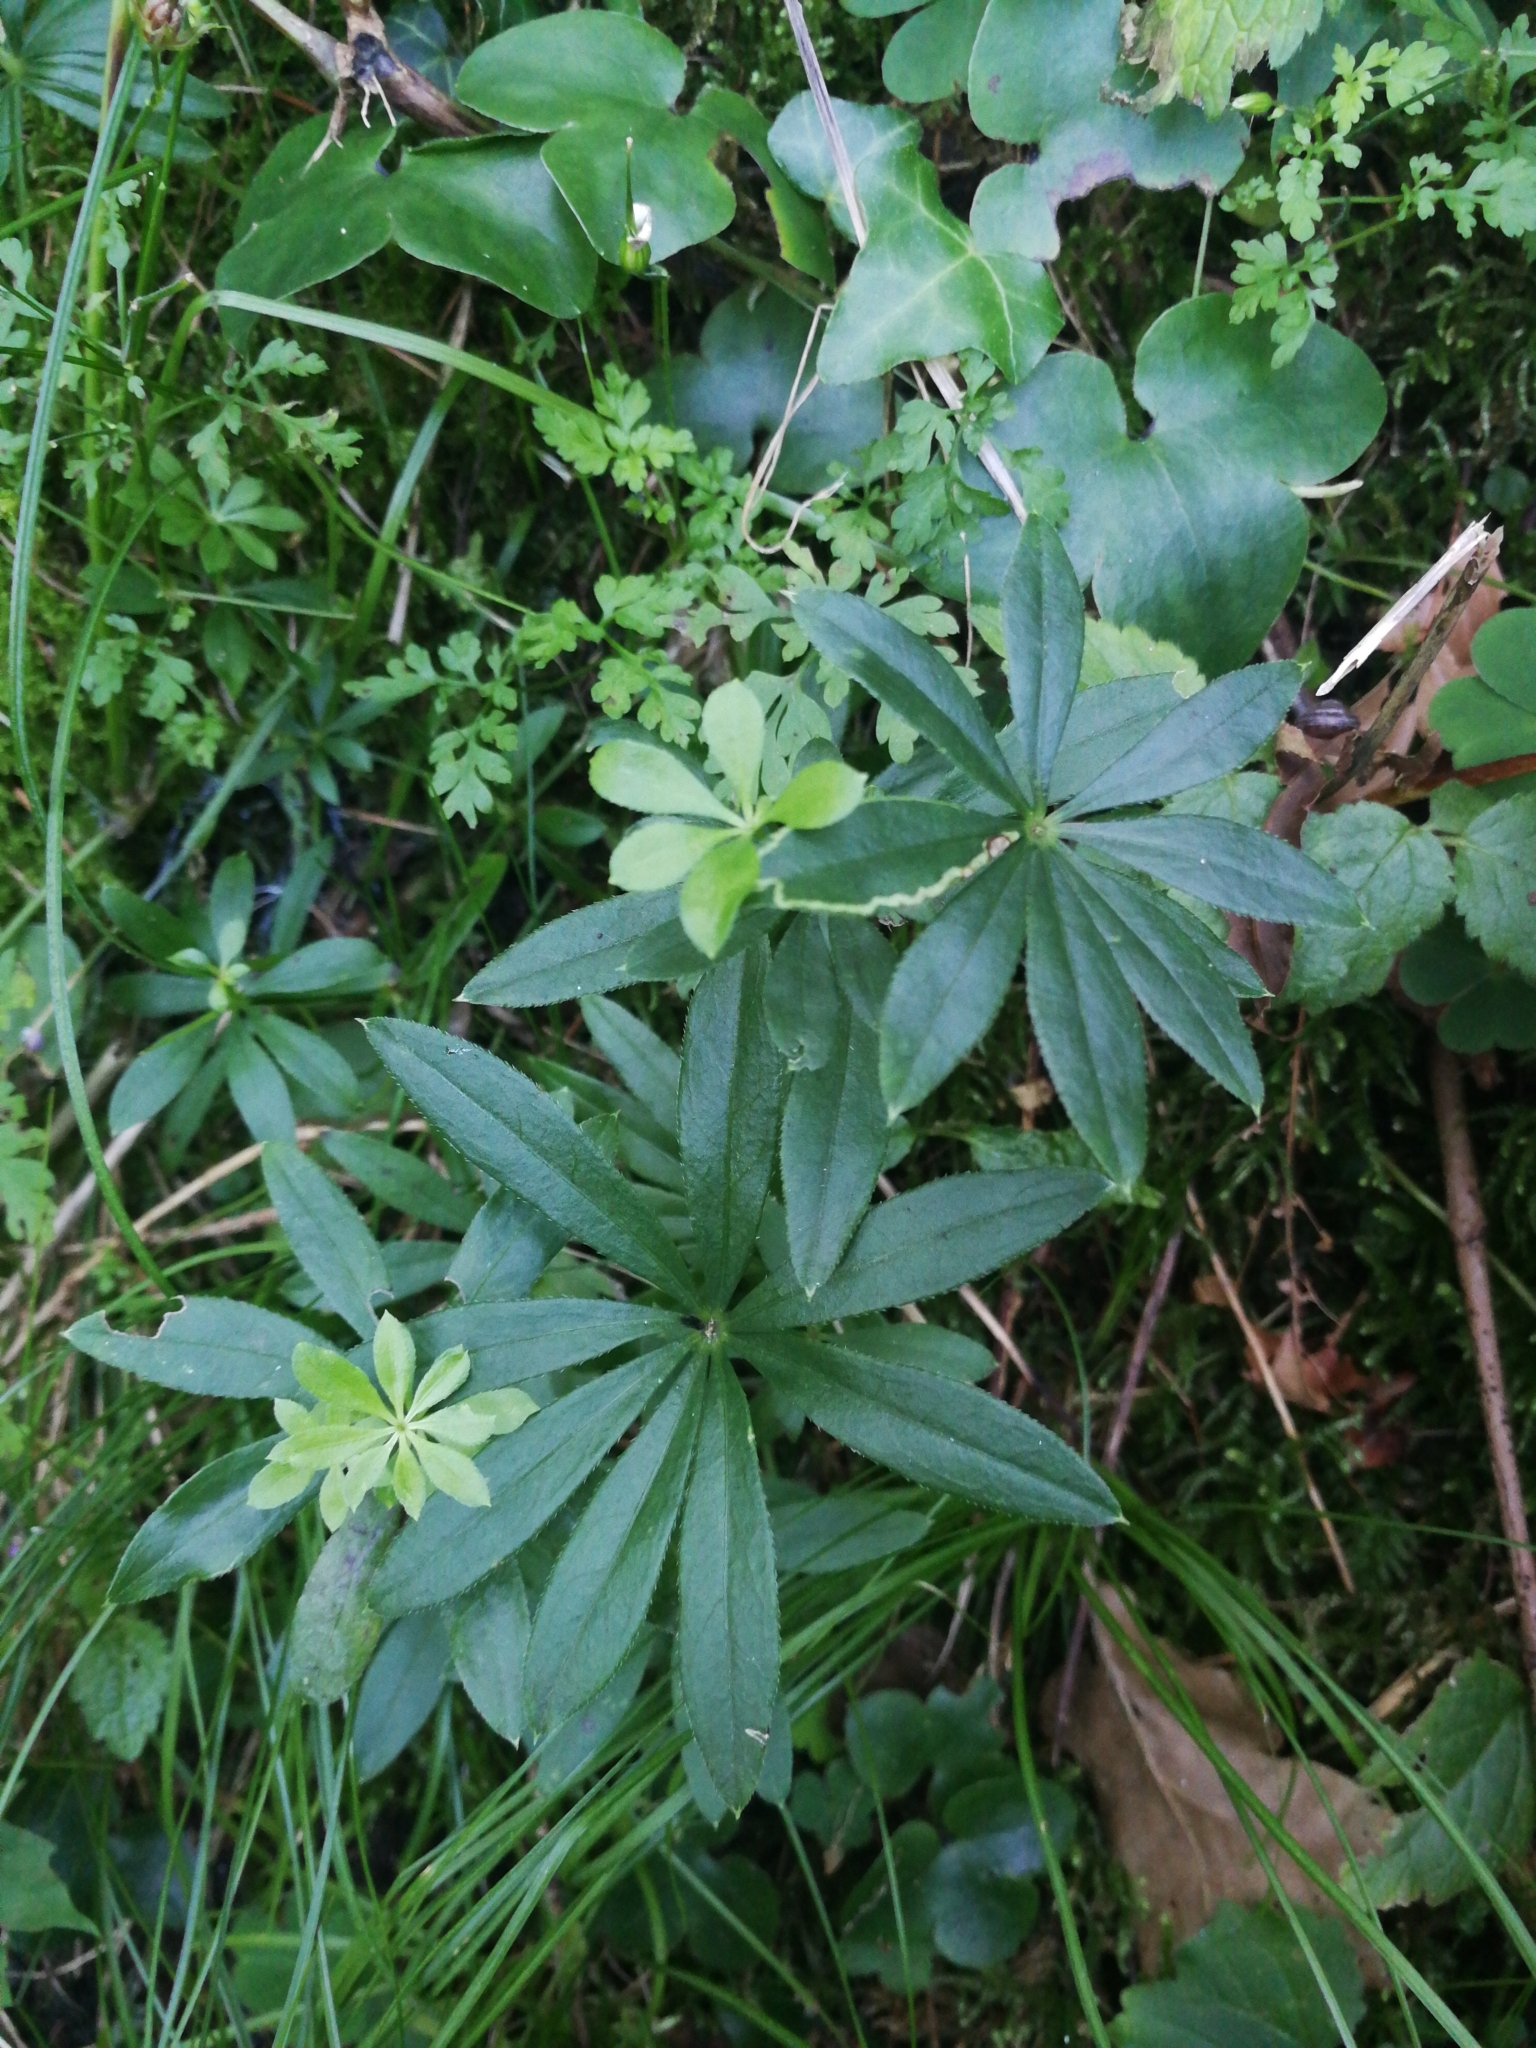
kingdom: Plantae
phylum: Tracheophyta
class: Magnoliopsida
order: Gentianales
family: Rubiaceae
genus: Galium
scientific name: Galium odoratum
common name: Sweet woodruff
